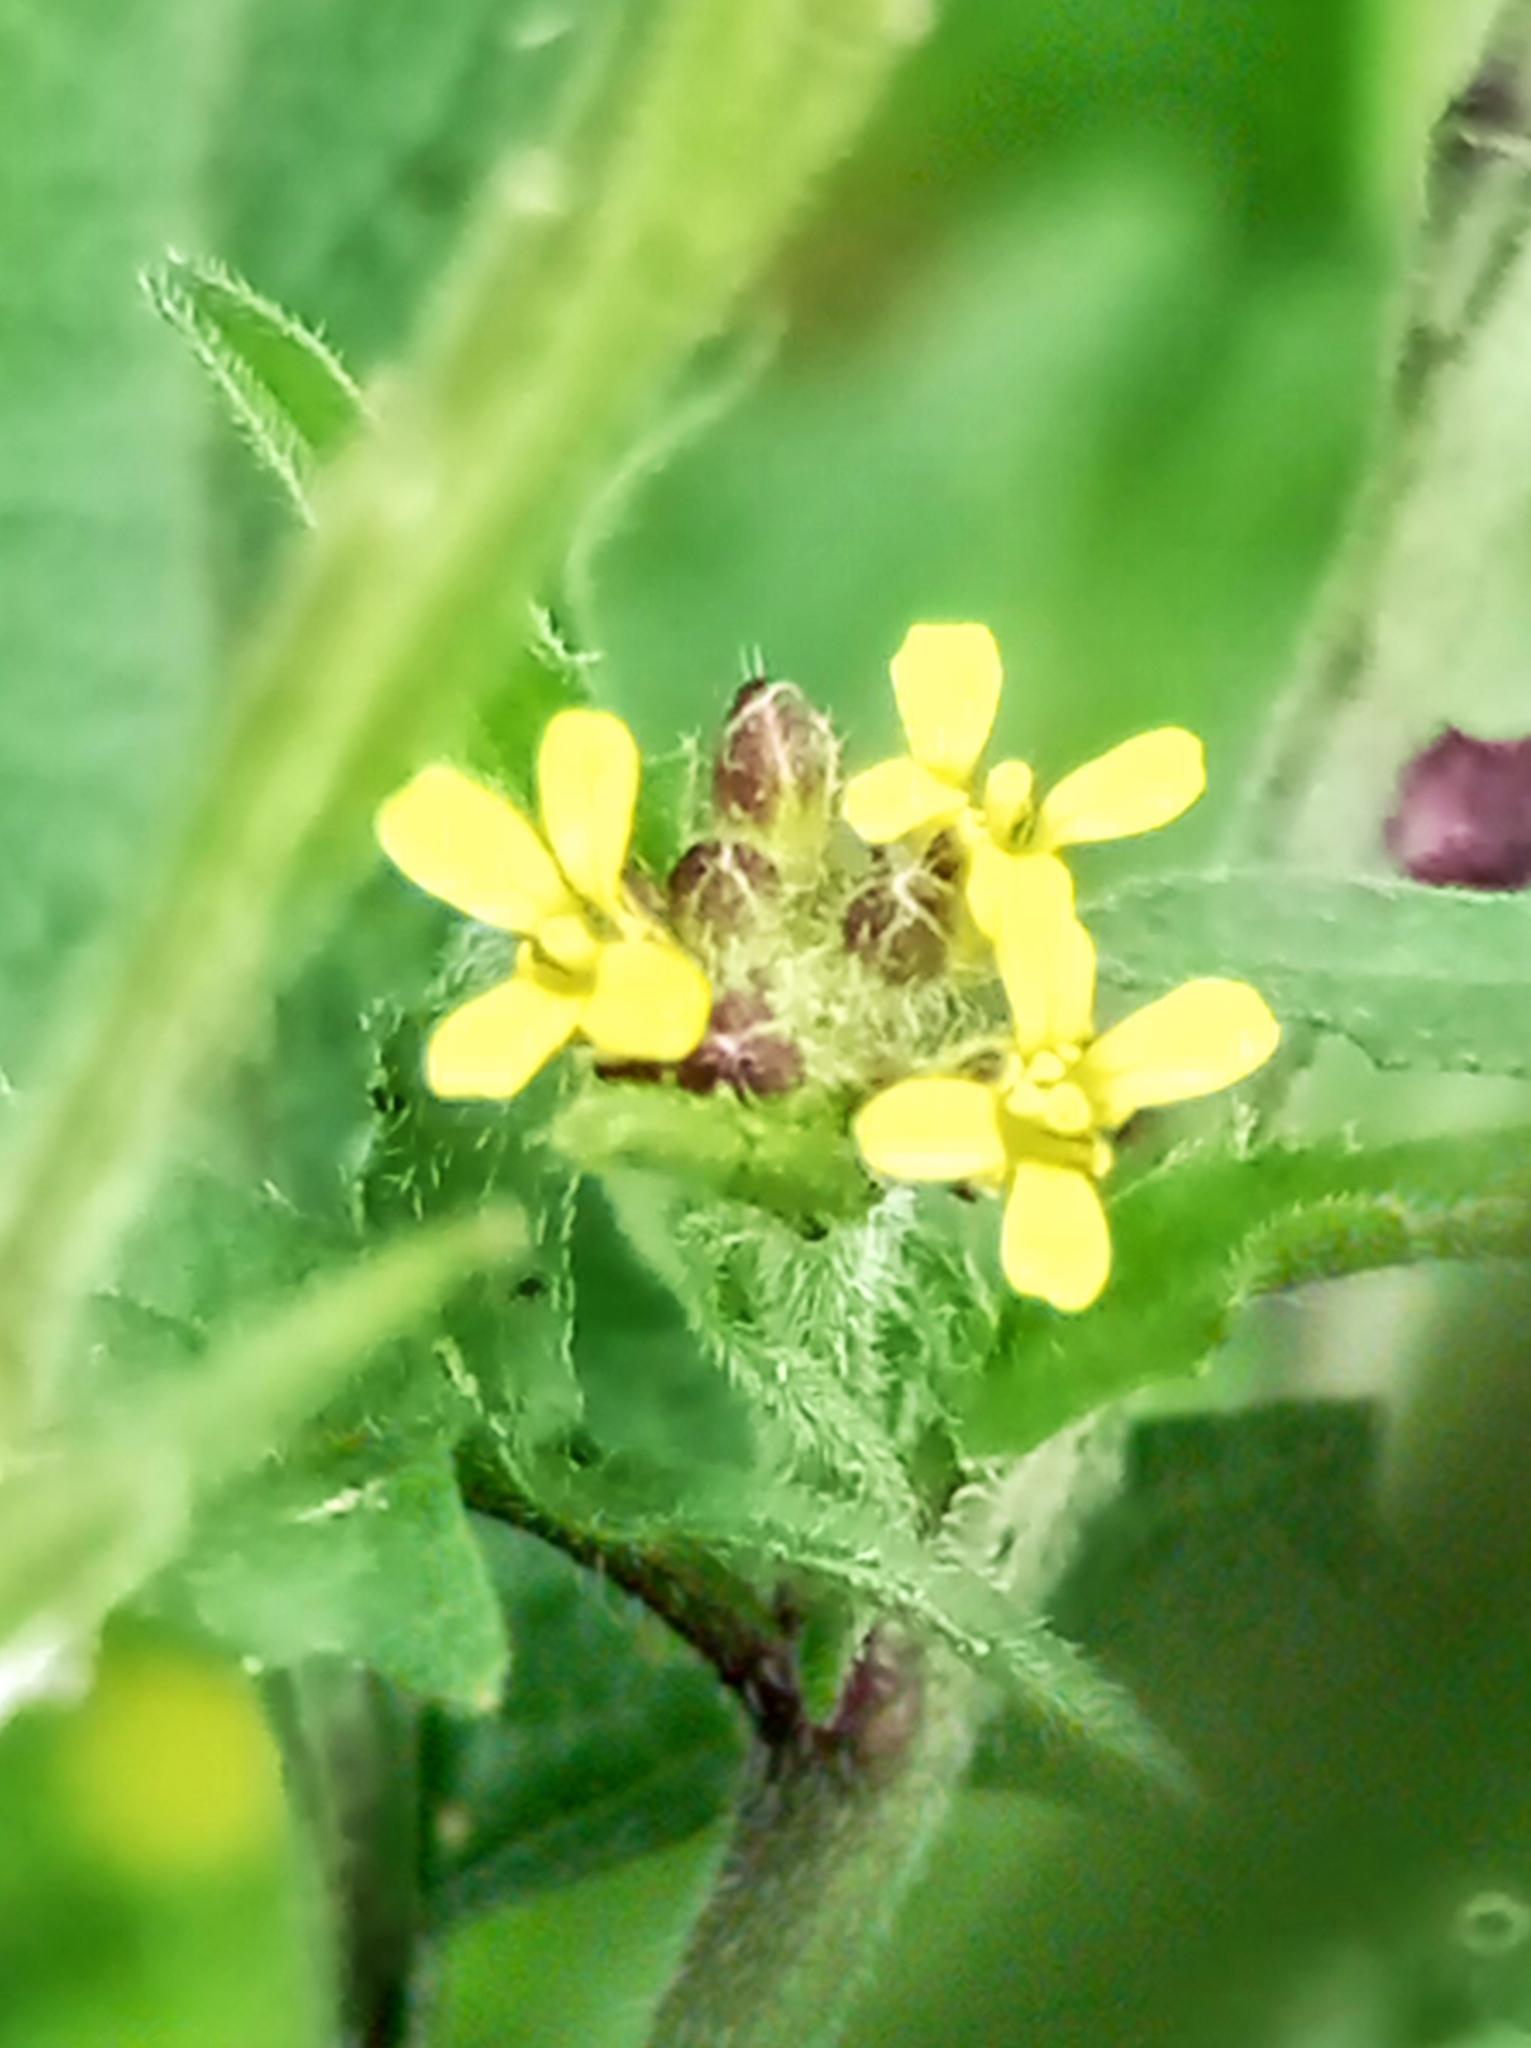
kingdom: Plantae
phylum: Tracheophyta
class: Magnoliopsida
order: Brassicales
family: Brassicaceae
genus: Sisymbrium
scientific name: Sisymbrium officinale
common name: Hedge mustard
